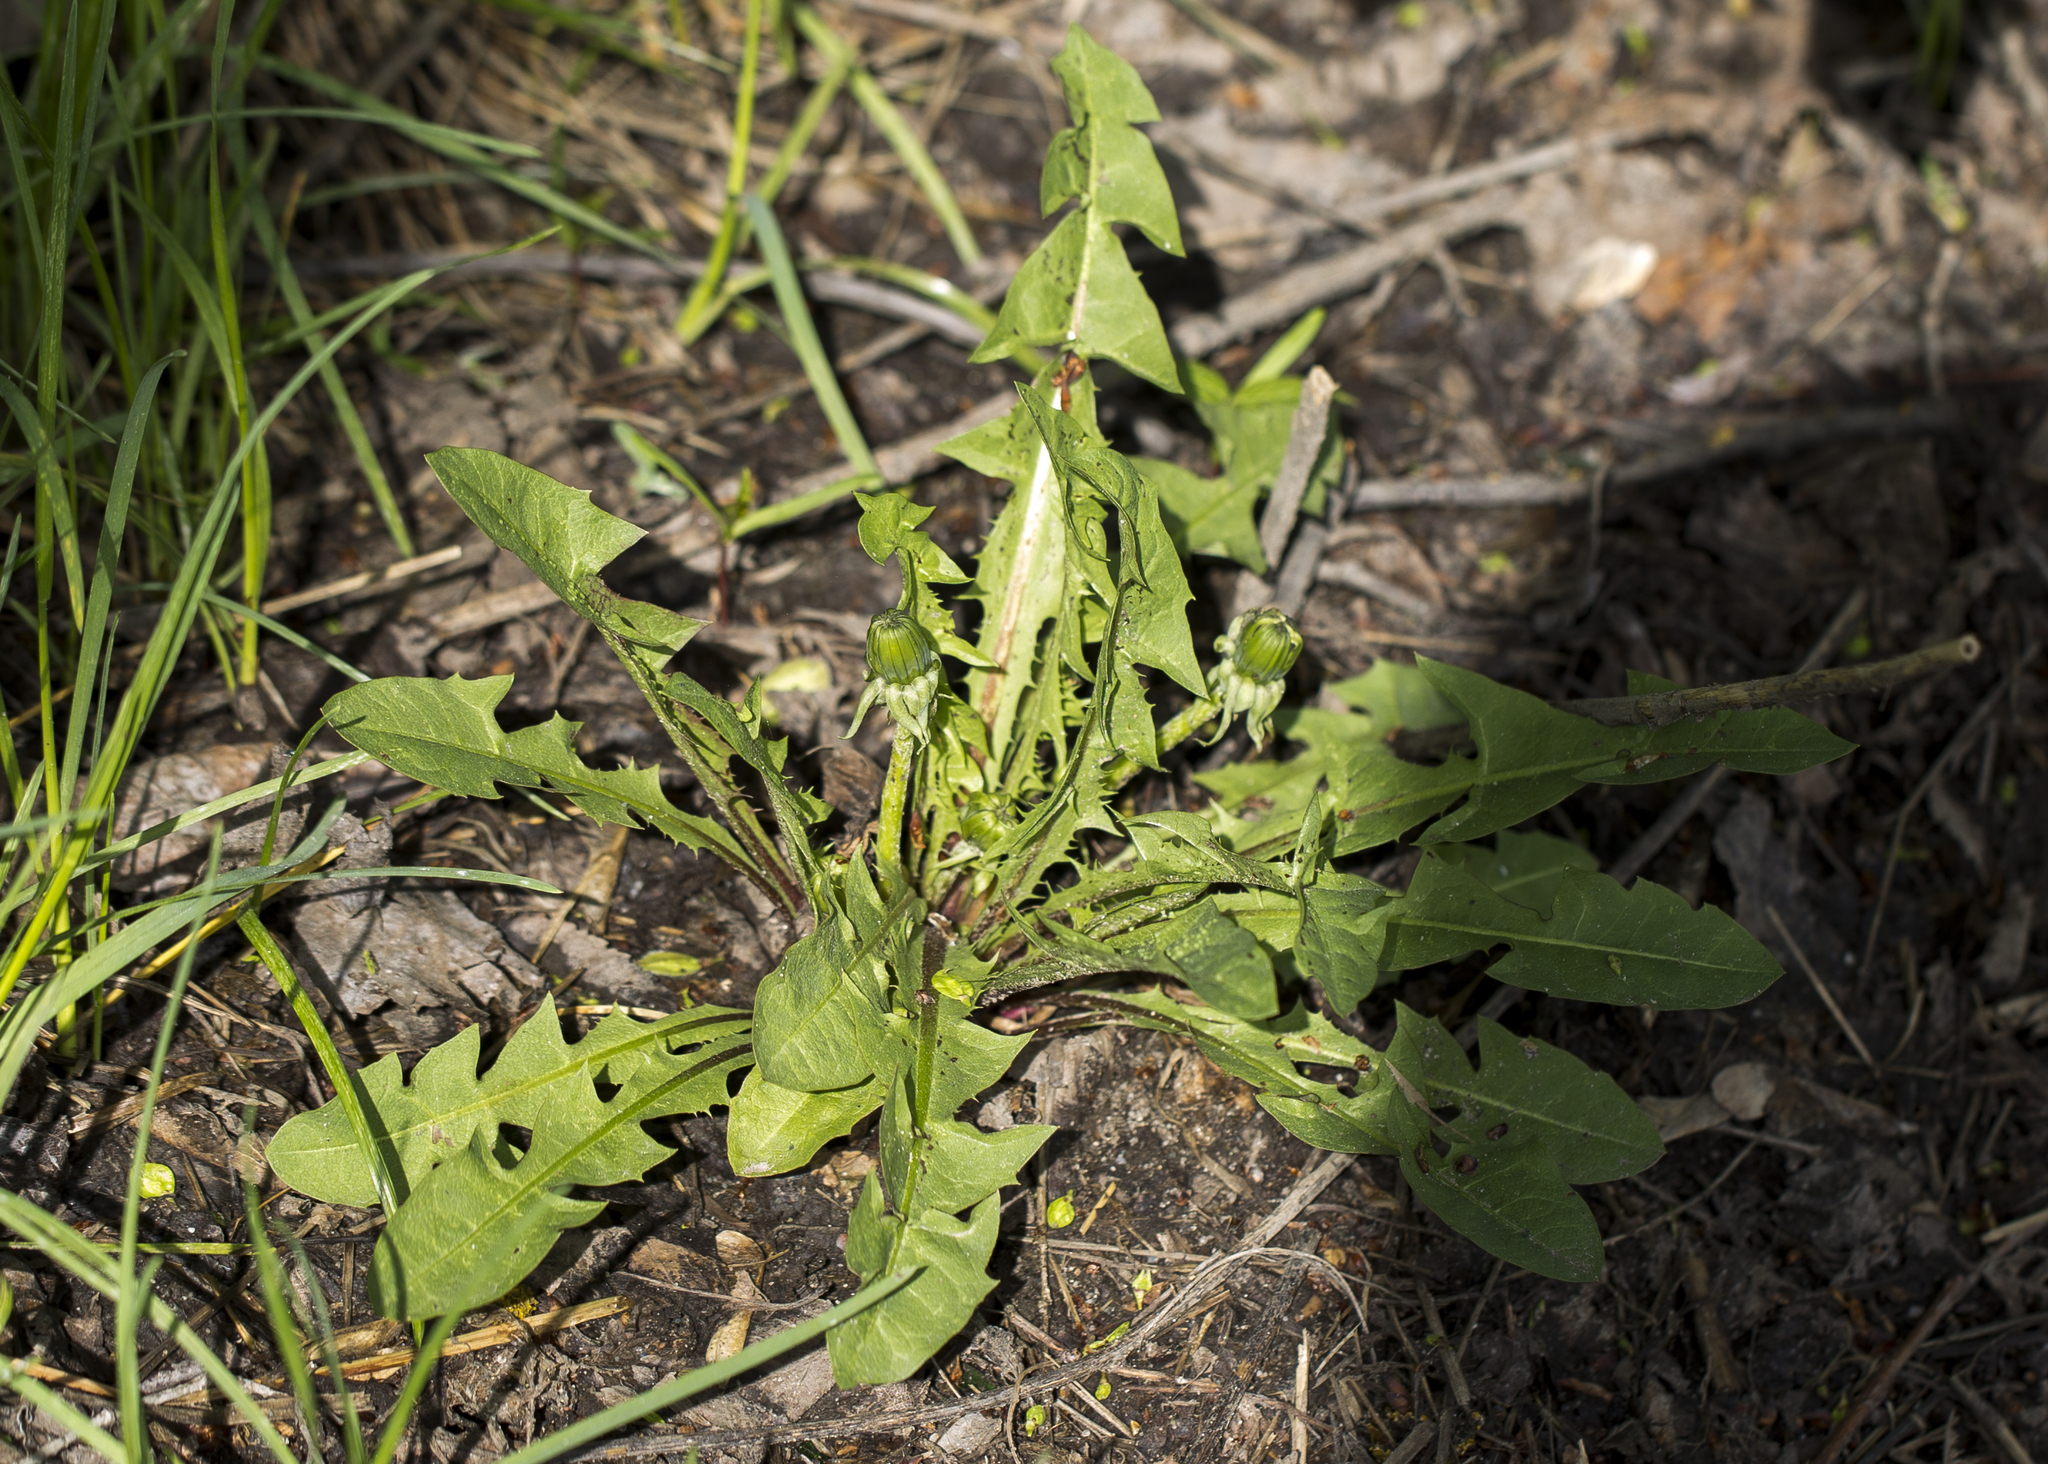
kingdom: Plantae
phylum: Tracheophyta
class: Magnoliopsida
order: Asterales
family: Asteraceae
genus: Taraxacum
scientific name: Taraxacum officinale
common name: Common dandelion
